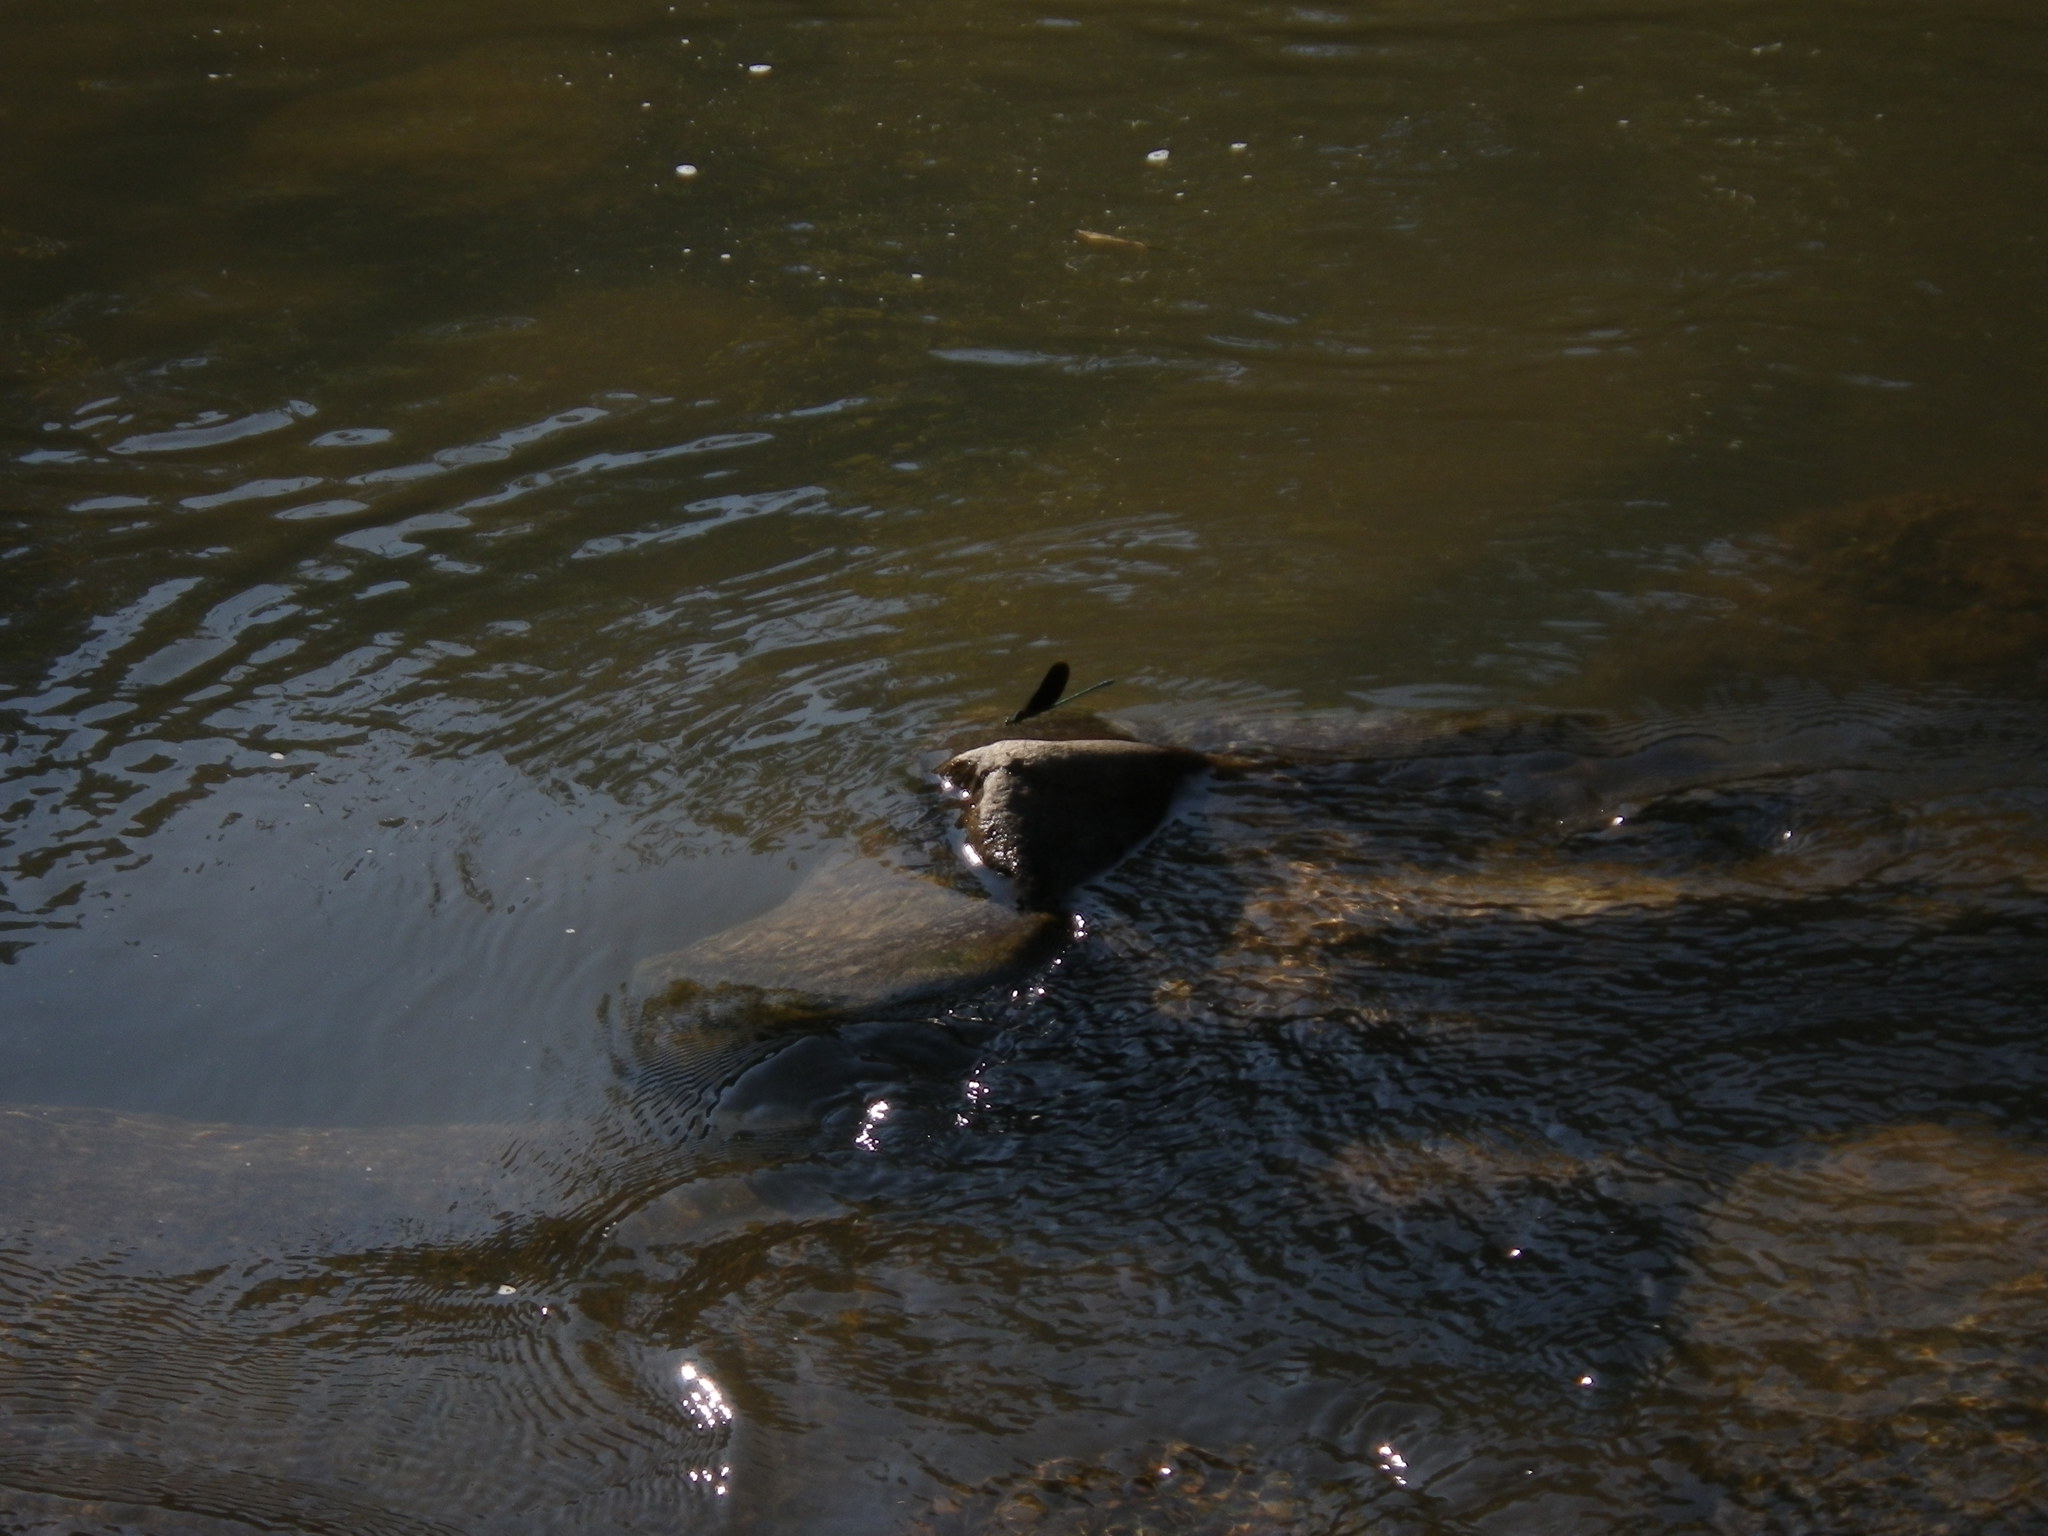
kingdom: Animalia
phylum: Arthropoda
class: Insecta
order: Odonata
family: Calopterygidae
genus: Neurobasis
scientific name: Neurobasis chinensis
